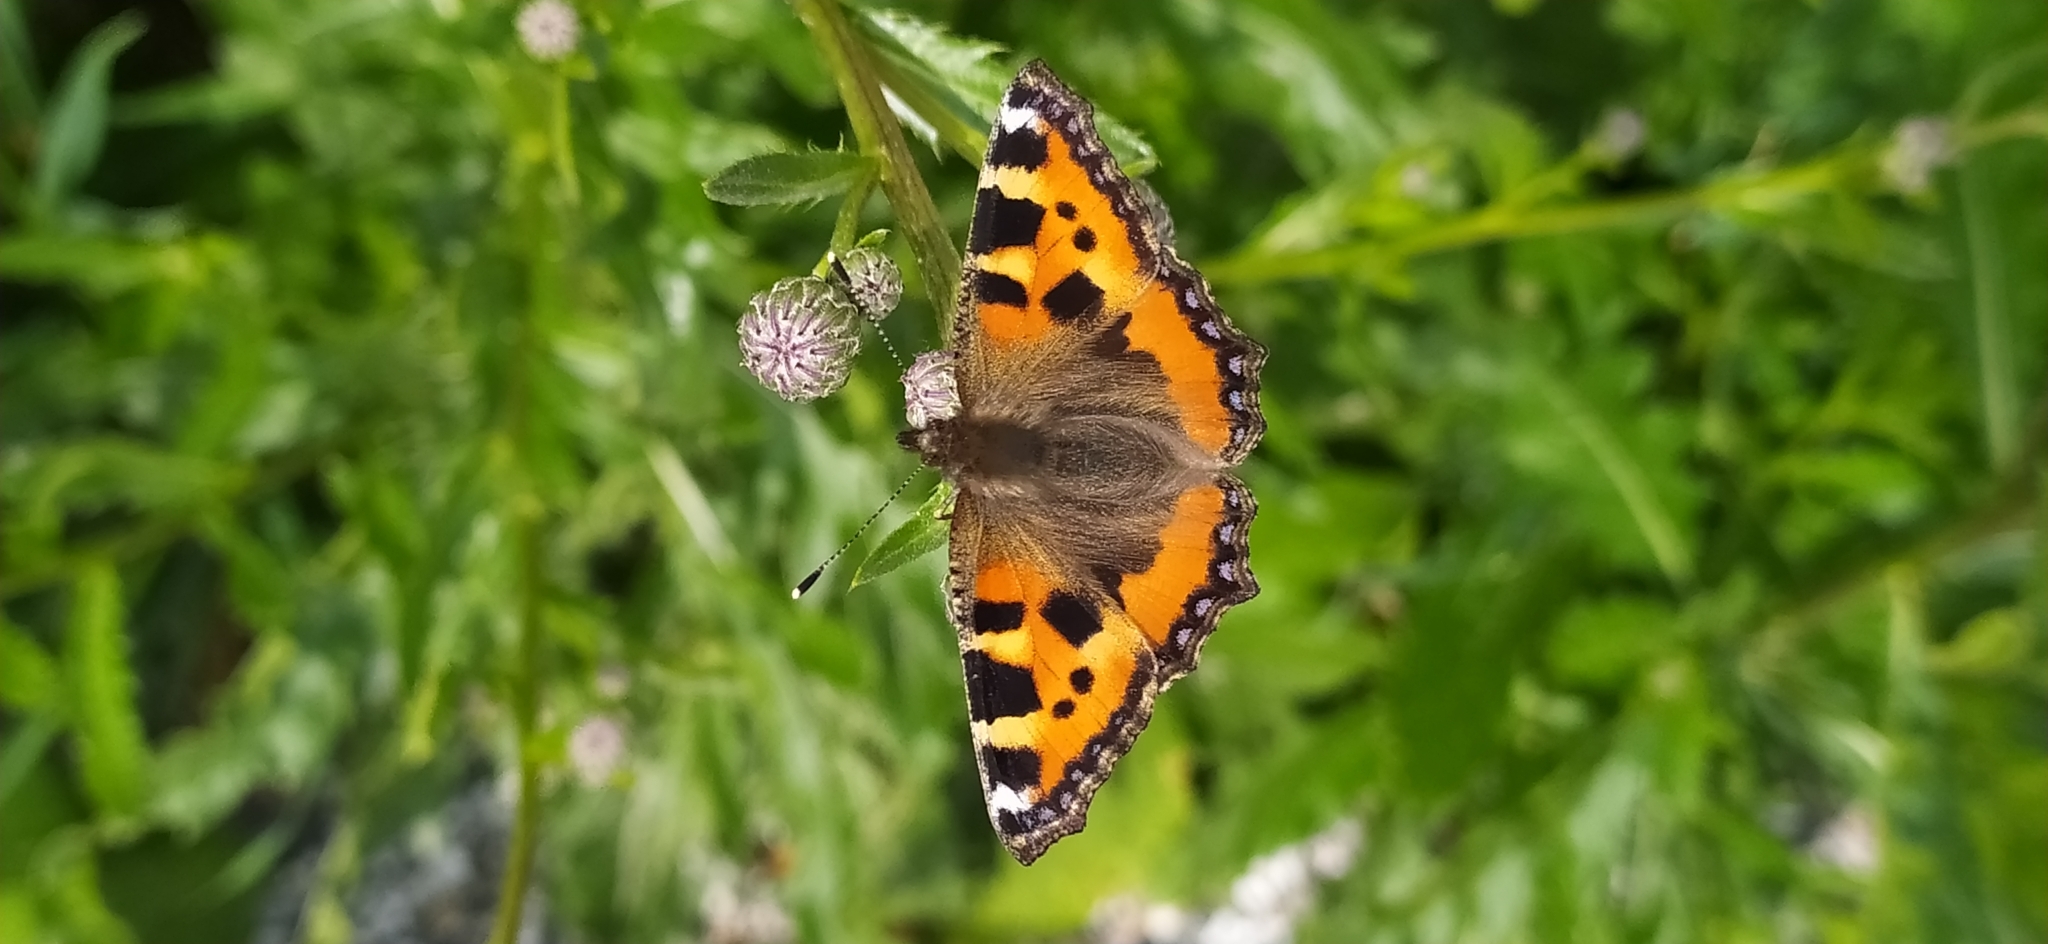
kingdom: Animalia
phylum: Arthropoda
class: Insecta
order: Lepidoptera
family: Nymphalidae
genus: Aglais
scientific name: Aglais urticae
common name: Small tortoiseshell
